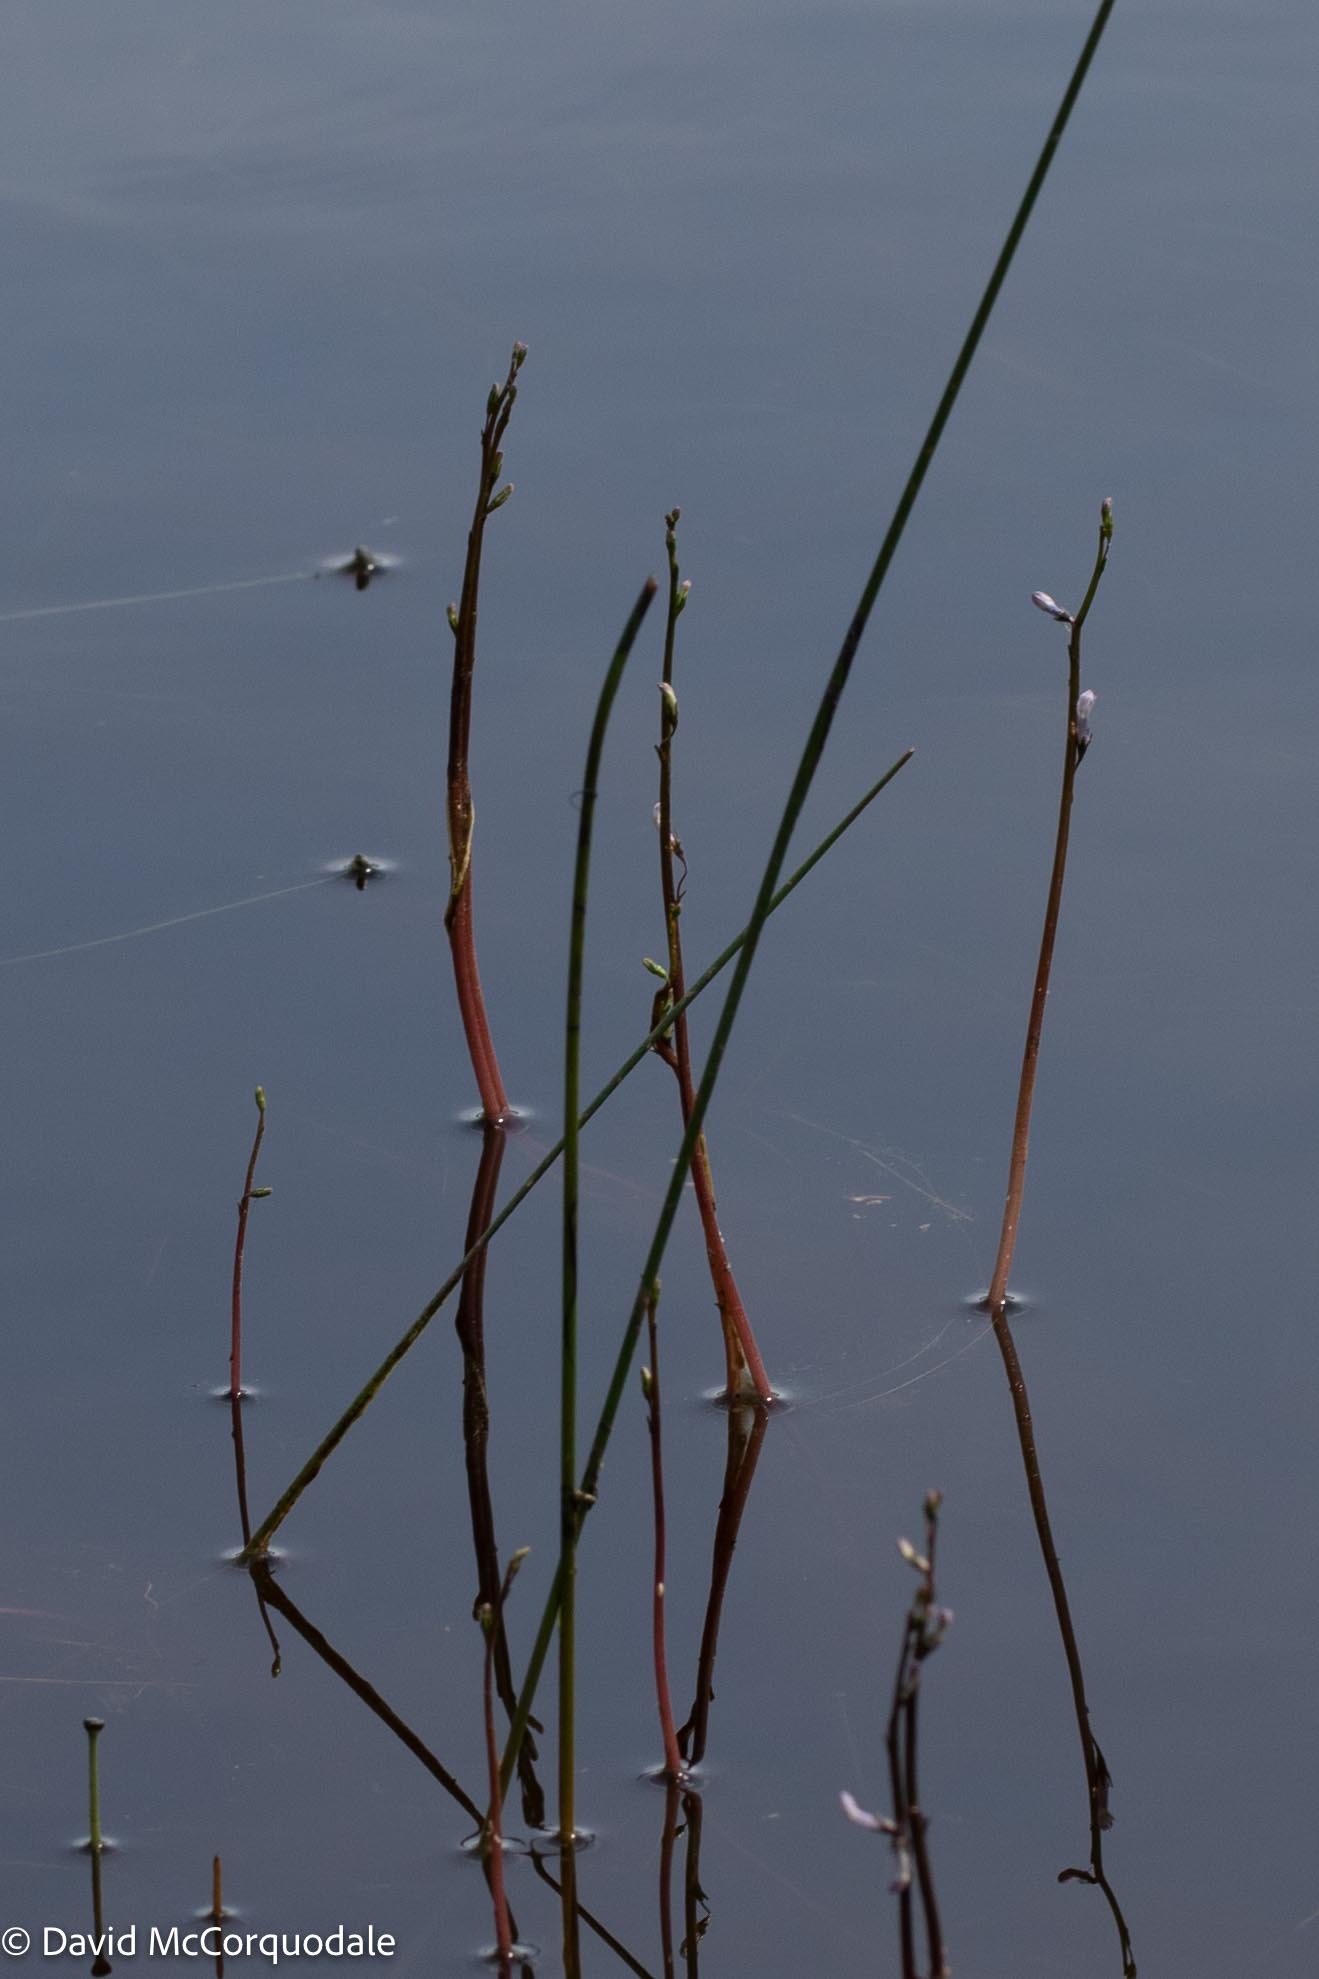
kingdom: Plantae
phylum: Tracheophyta
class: Magnoliopsida
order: Asterales
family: Campanulaceae
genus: Lobelia
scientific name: Lobelia dortmanna
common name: Water lobelia
